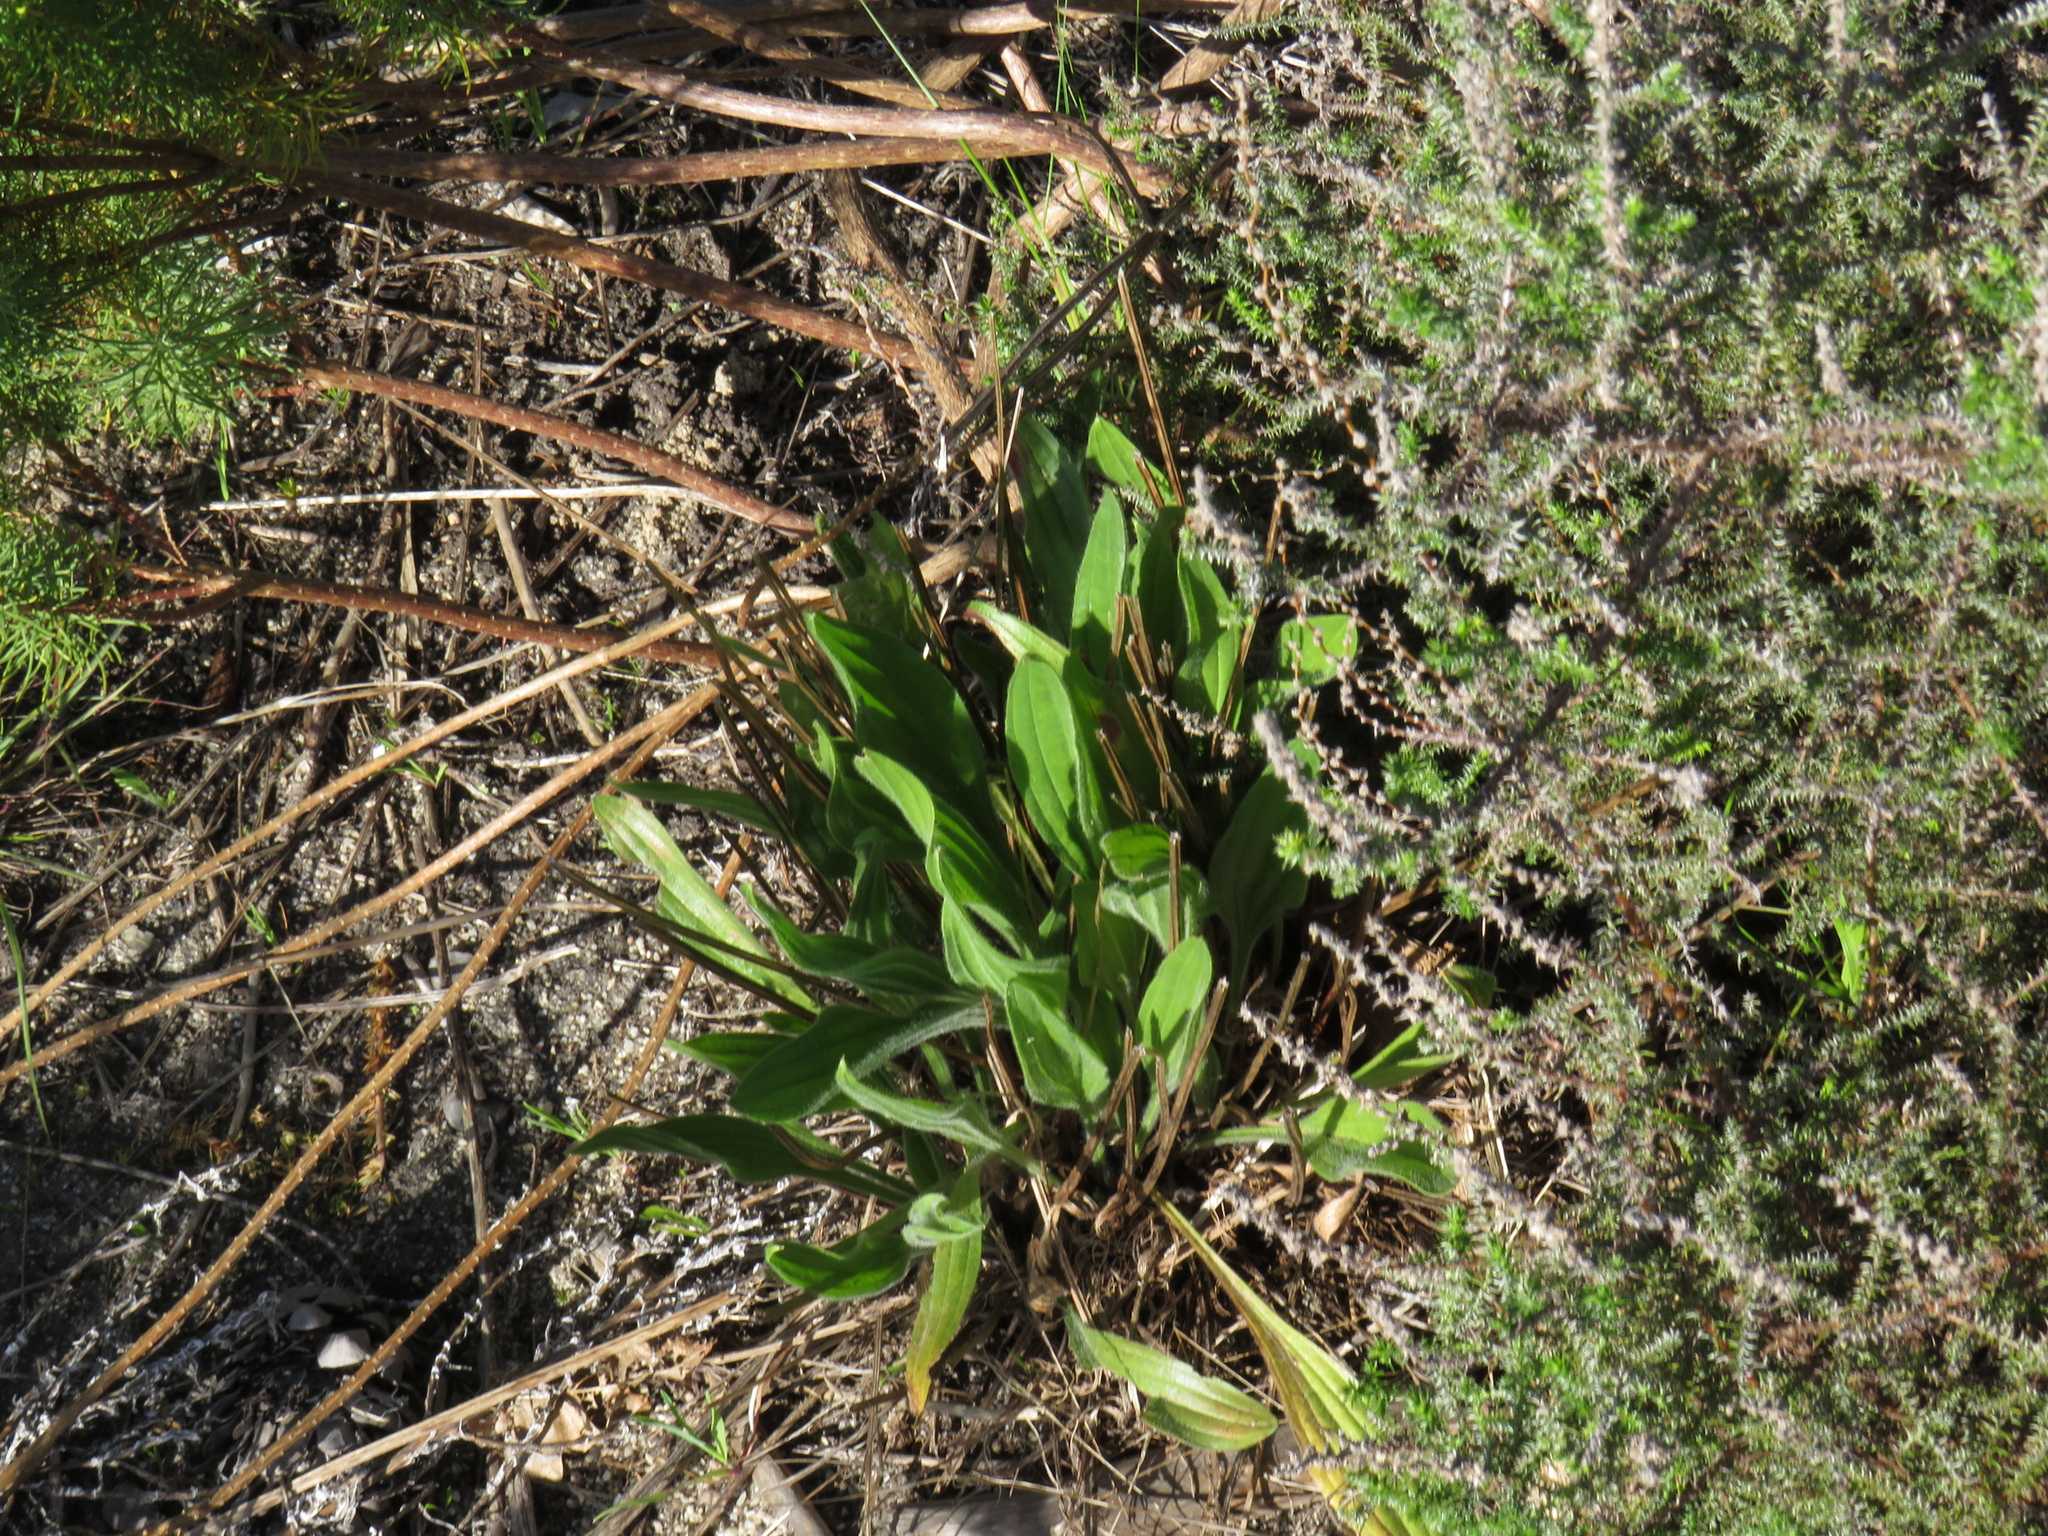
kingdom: Plantae
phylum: Tracheophyta
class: Magnoliopsida
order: Lamiales
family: Plantaginaceae
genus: Plantago
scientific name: Plantago lanceolata
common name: Ribwort plantain
